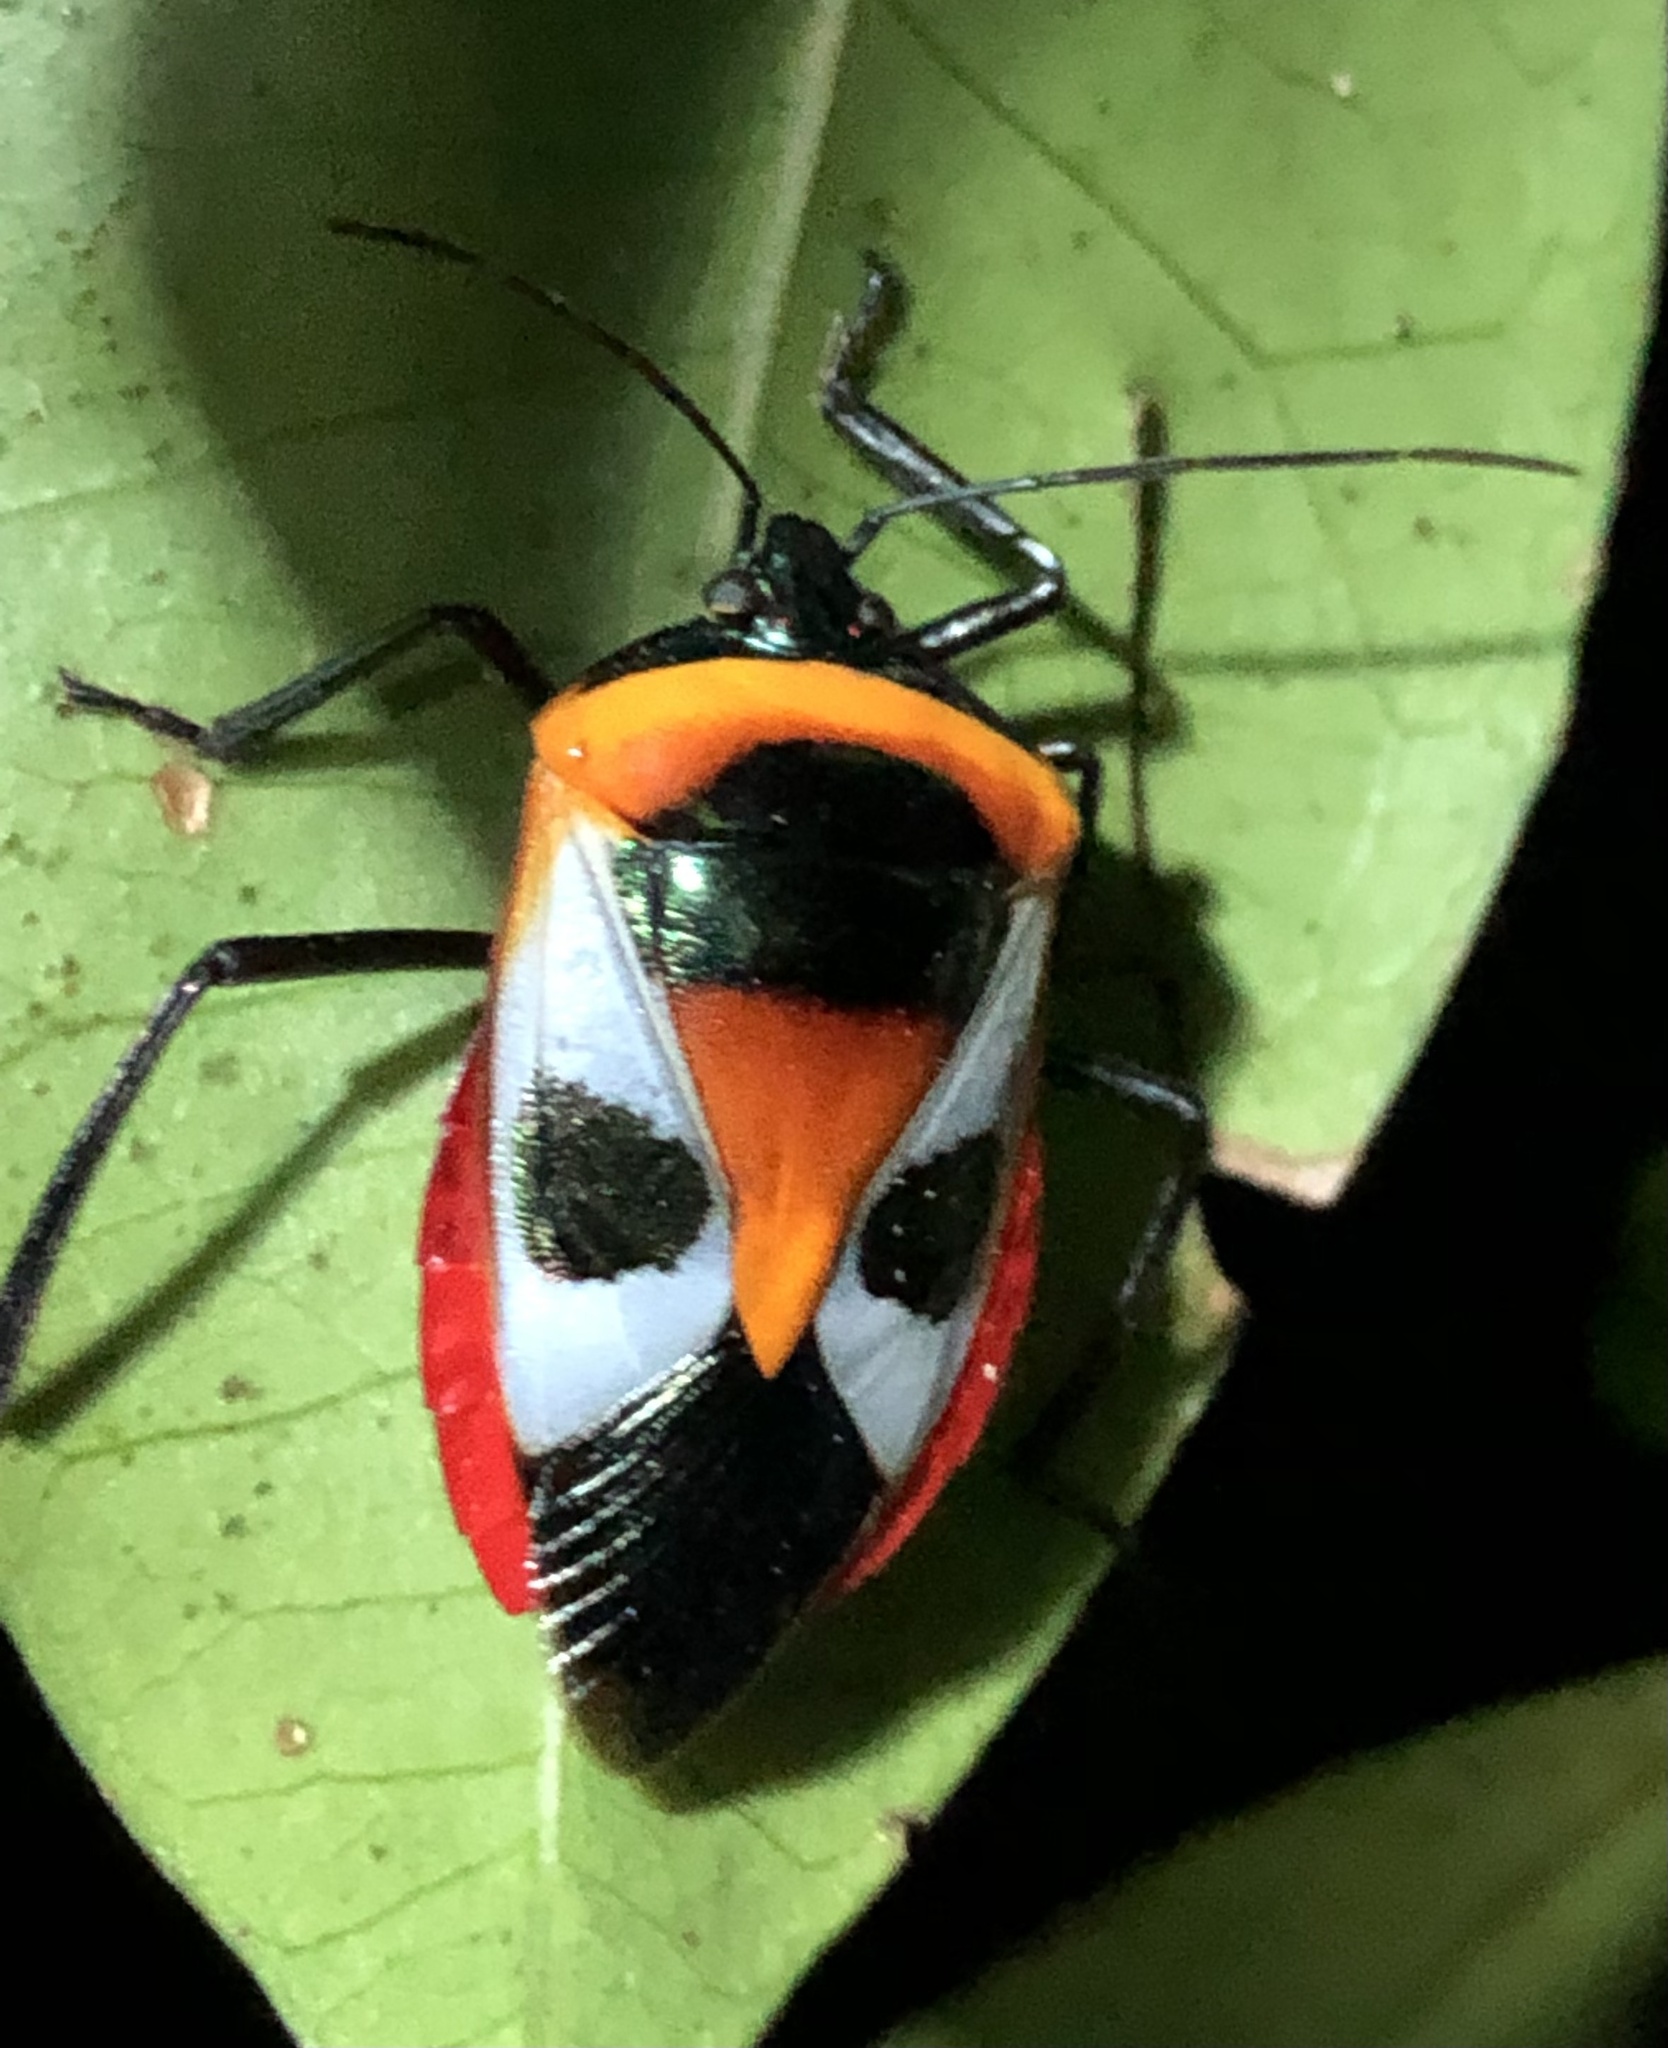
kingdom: Animalia
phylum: Arthropoda
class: Insecta
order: Hemiptera
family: Pentatomidae
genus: Catacanthus
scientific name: Catacanthus
